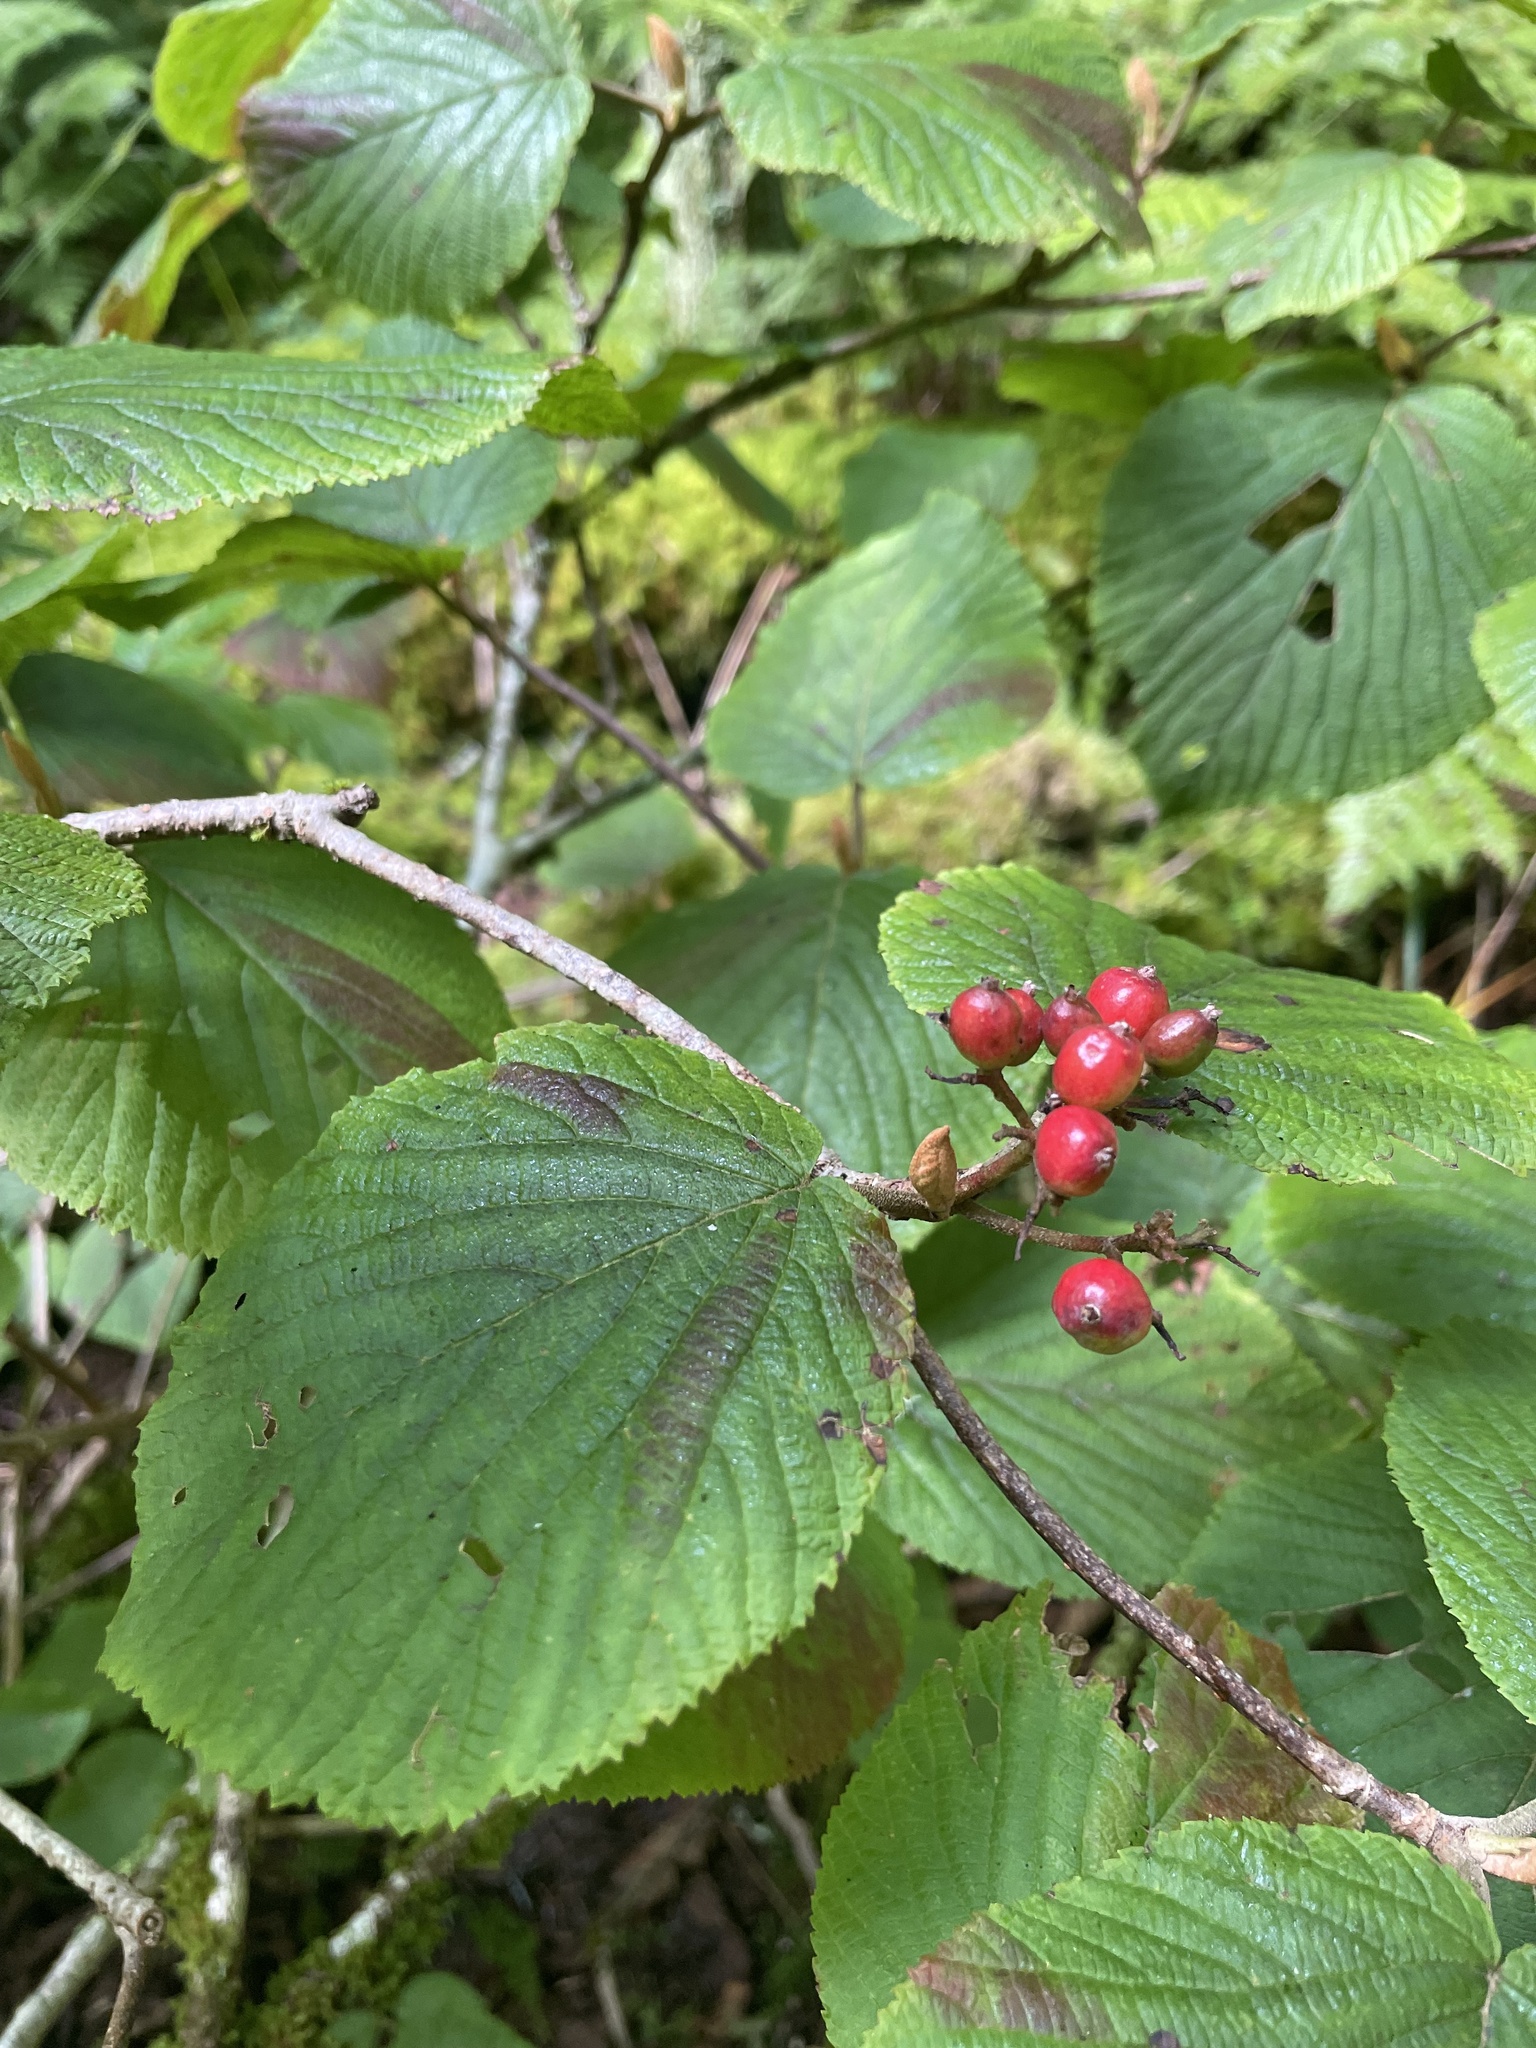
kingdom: Plantae
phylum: Tracheophyta
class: Magnoliopsida
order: Dipsacales
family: Viburnaceae
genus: Viburnum
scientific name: Viburnum lantanoides
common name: Hobblebush
